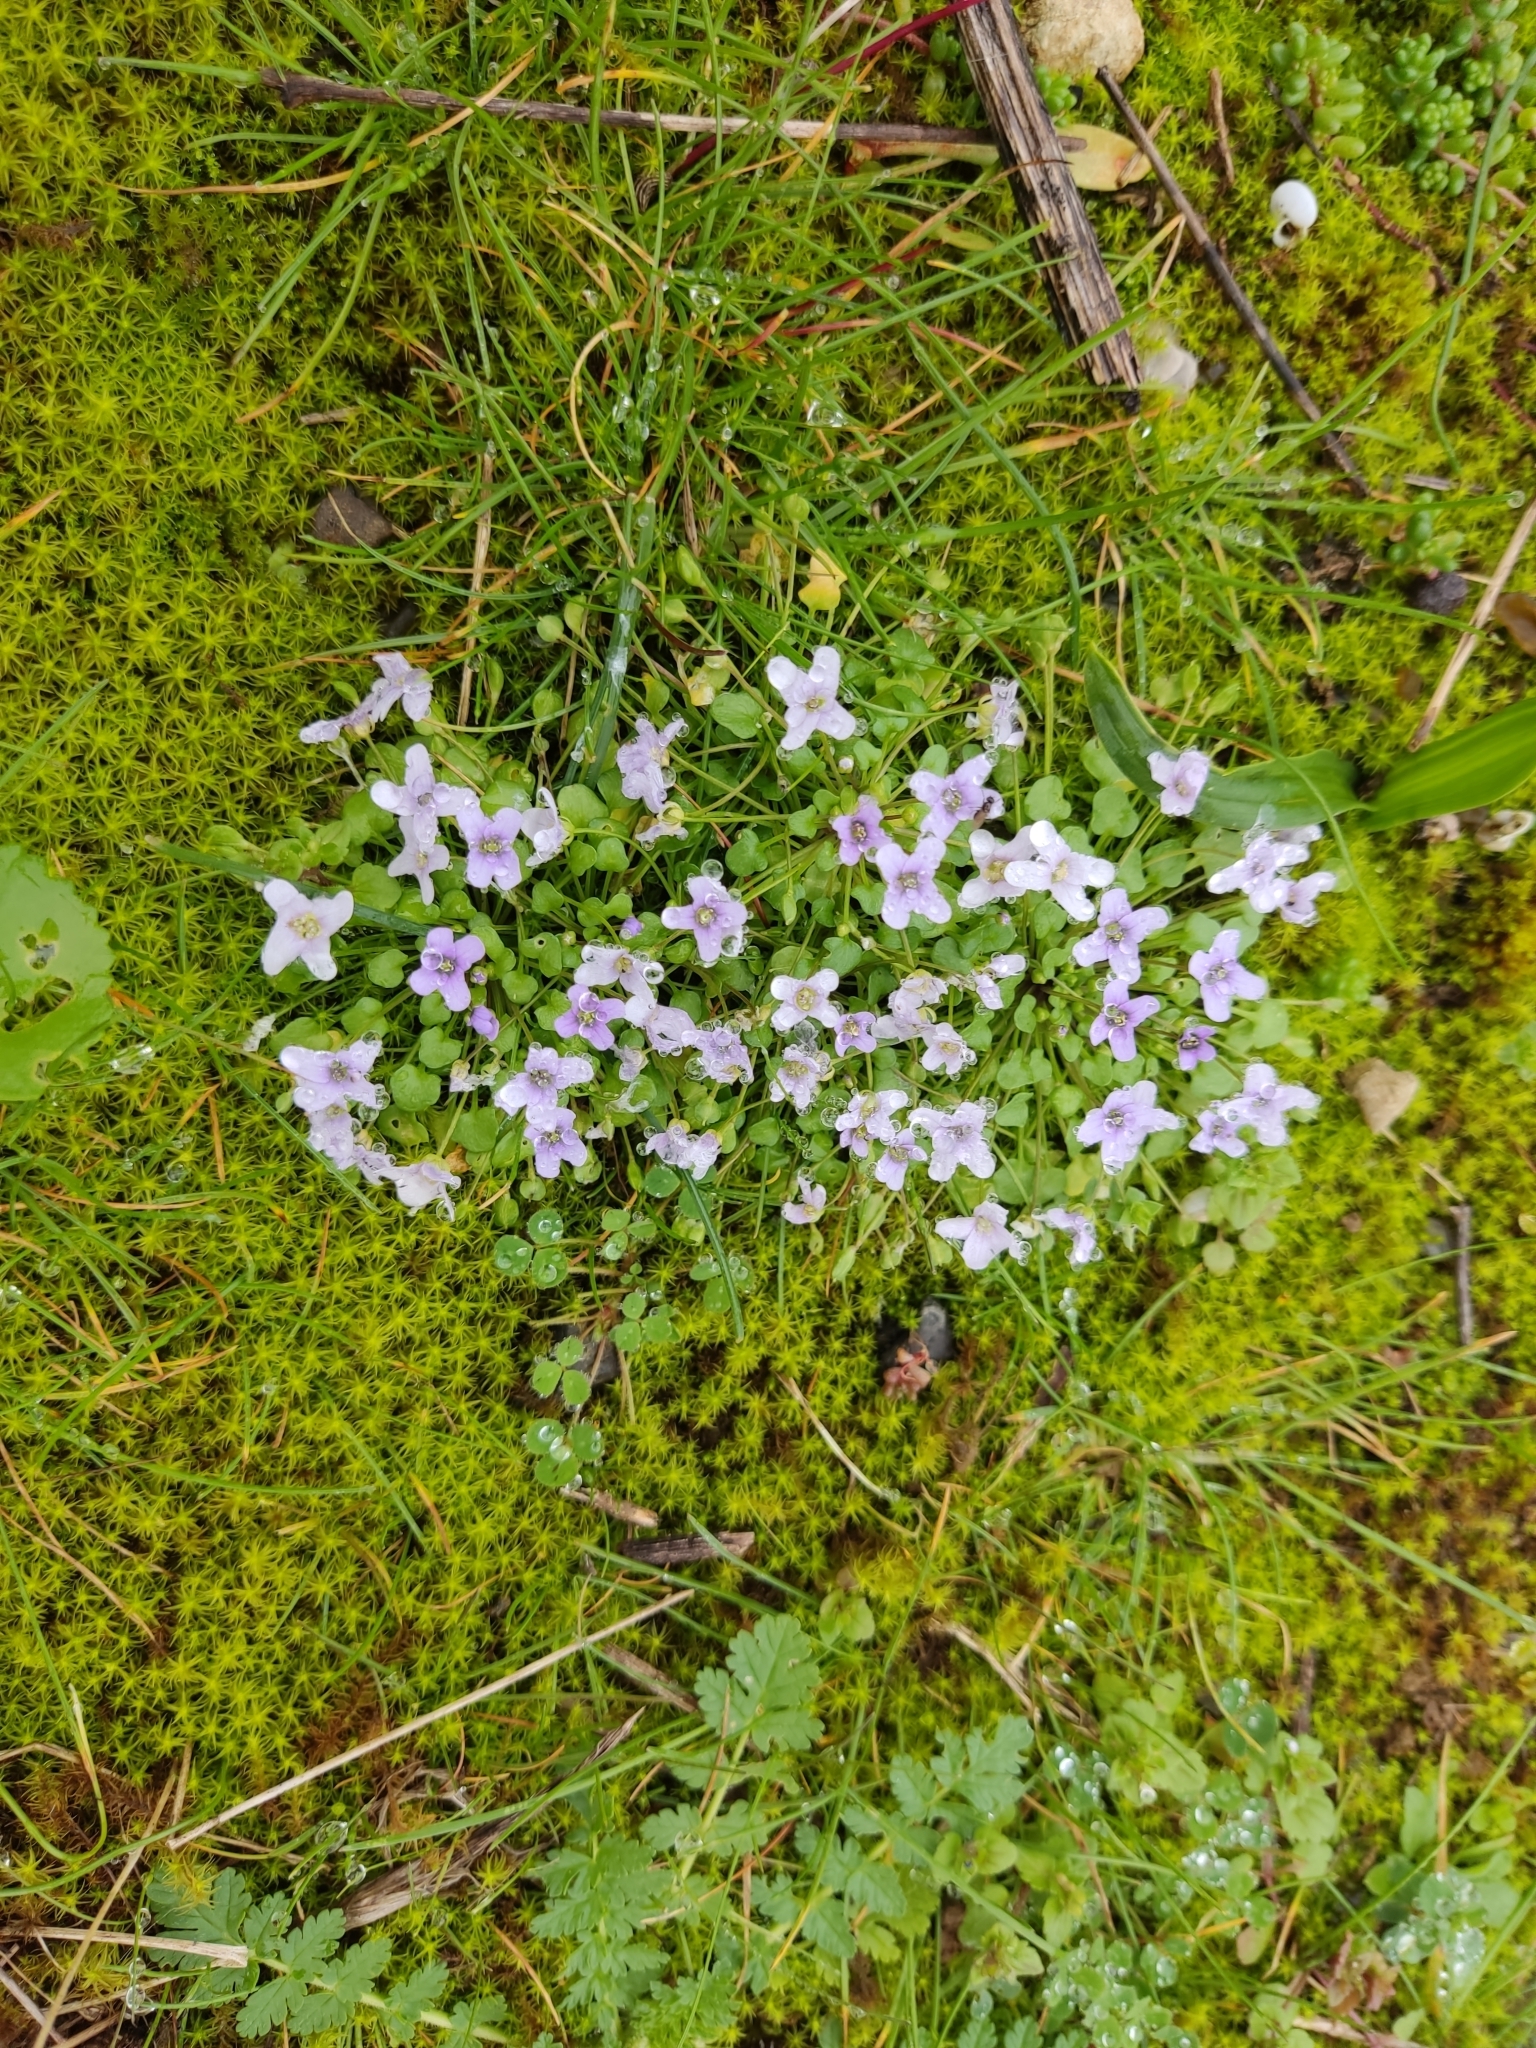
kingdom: Plantae
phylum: Tracheophyta
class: Magnoliopsida
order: Brassicales
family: Brassicaceae
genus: Ionopsidium
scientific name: Ionopsidium acaule
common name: False diamondflower
